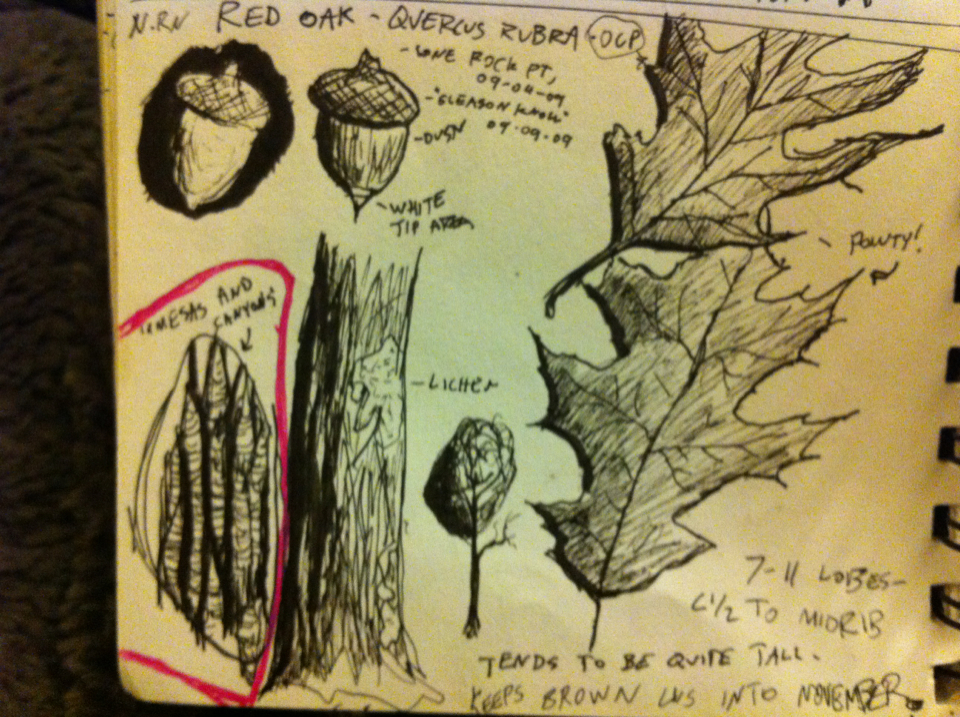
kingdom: Plantae
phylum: Tracheophyta
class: Magnoliopsida
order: Fagales
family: Fagaceae
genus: Quercus
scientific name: Quercus rubra
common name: Red oak
